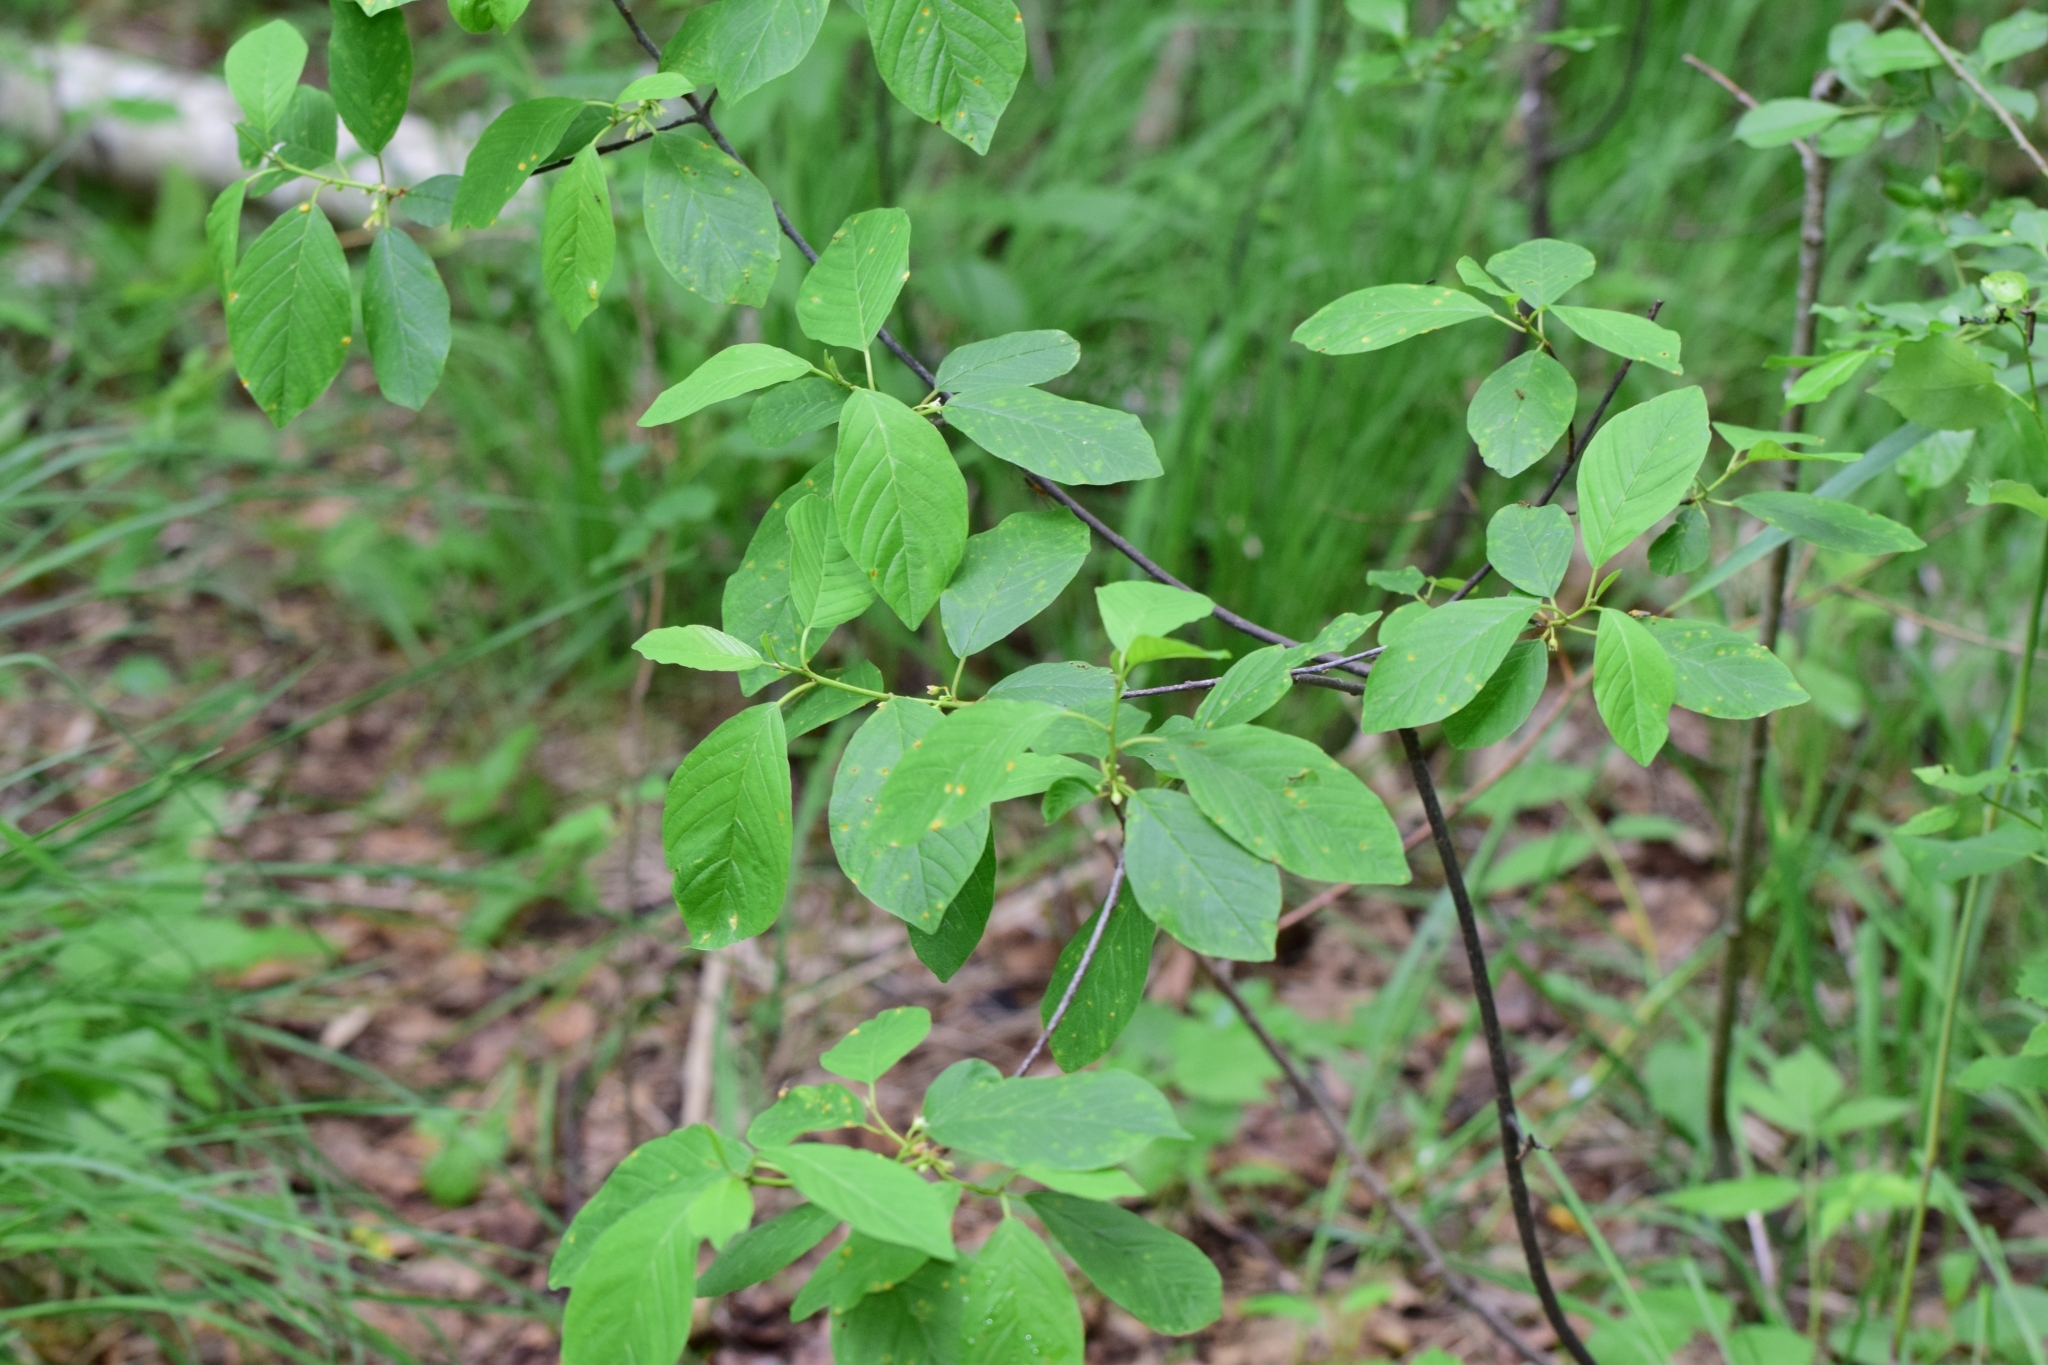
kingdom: Plantae
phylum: Tracheophyta
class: Magnoliopsida
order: Rosales
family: Rhamnaceae
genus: Frangula
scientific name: Frangula alnus
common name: Alder buckthorn
